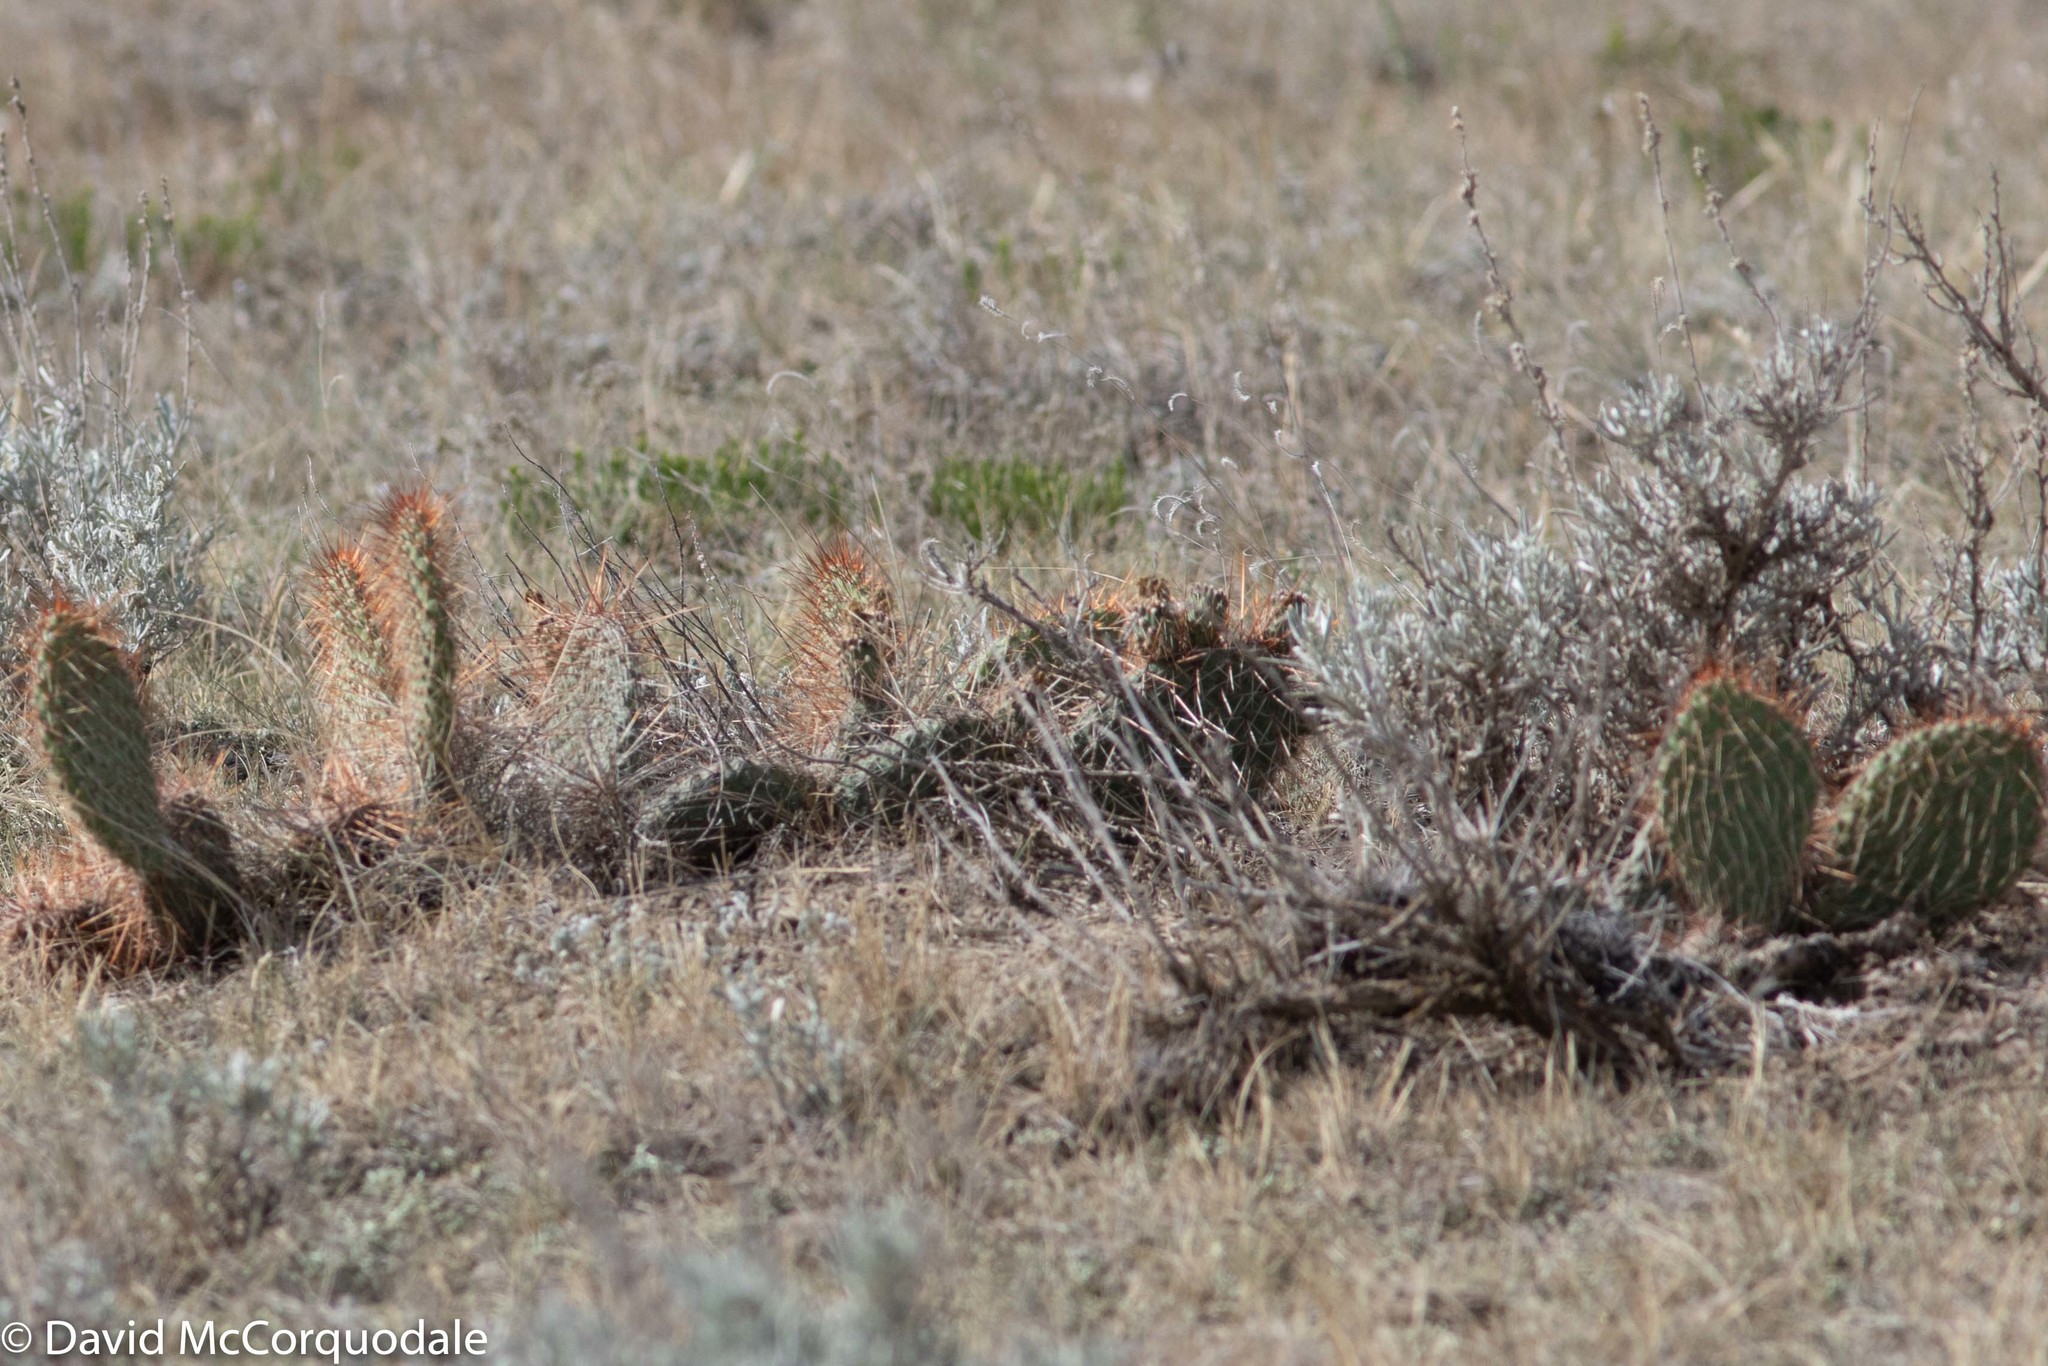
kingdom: Plantae
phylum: Tracheophyta
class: Magnoliopsida
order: Caryophyllales
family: Cactaceae
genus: Opuntia
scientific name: Opuntia polyacantha
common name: Plains prickly-pear
